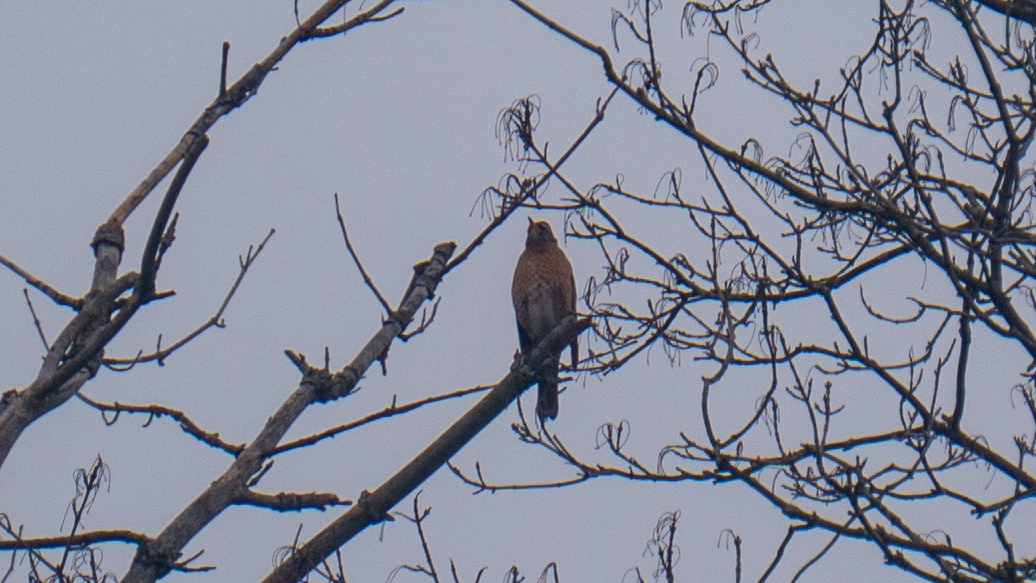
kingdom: Animalia
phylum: Chordata
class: Aves
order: Passeriformes
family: Turdidae
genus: Turdus
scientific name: Turdus migratorius
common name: American robin
